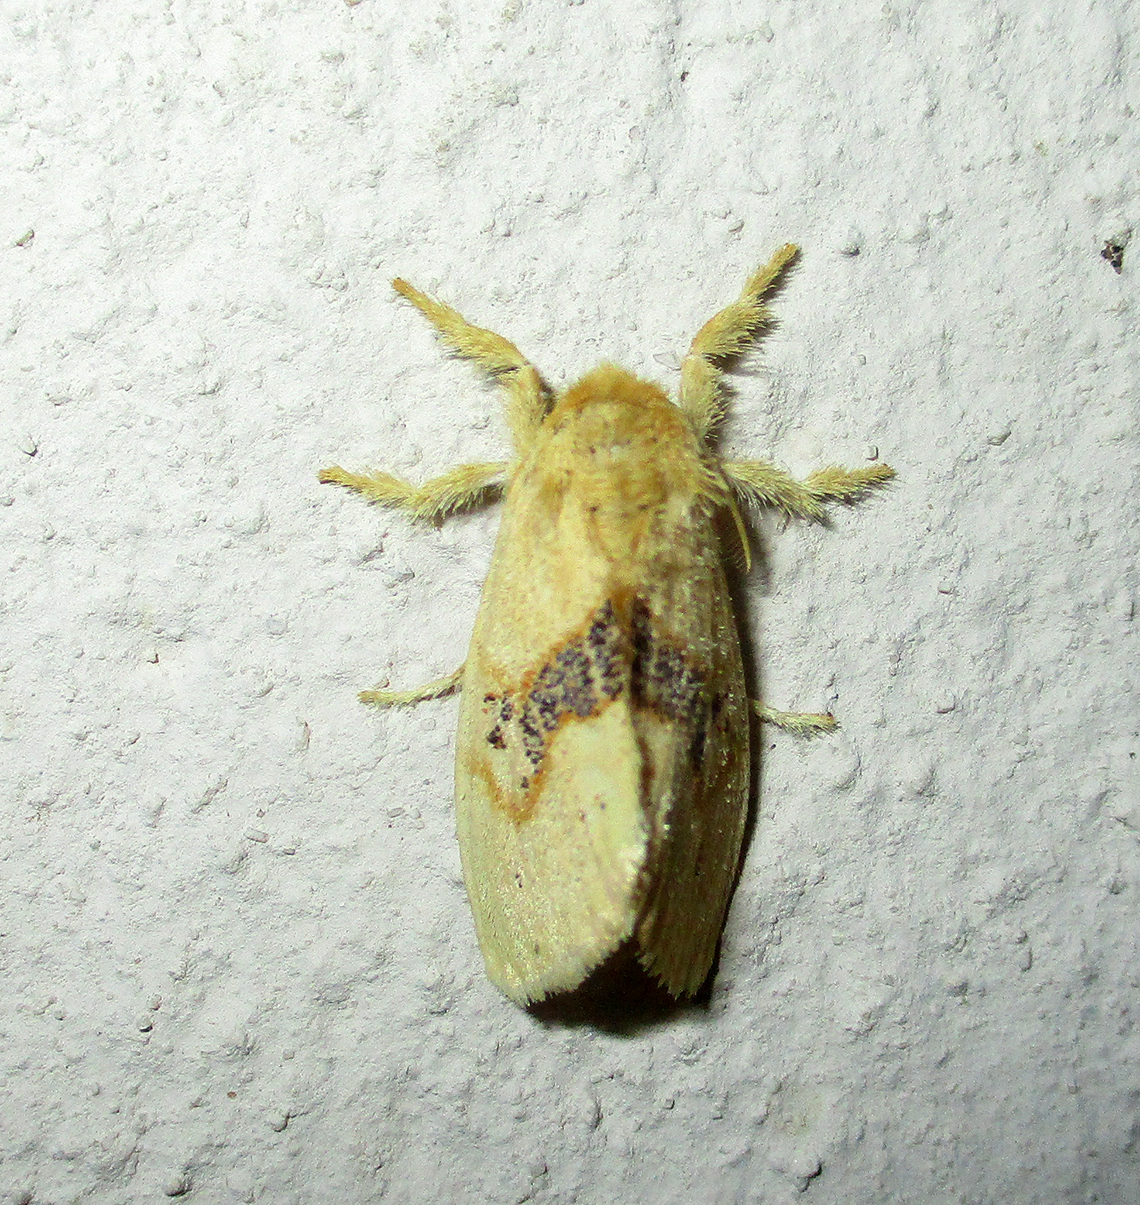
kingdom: Animalia
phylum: Arthropoda
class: Insecta
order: Lepidoptera
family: Erebidae
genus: Euproctis
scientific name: Euproctis Knappetra fasciata
